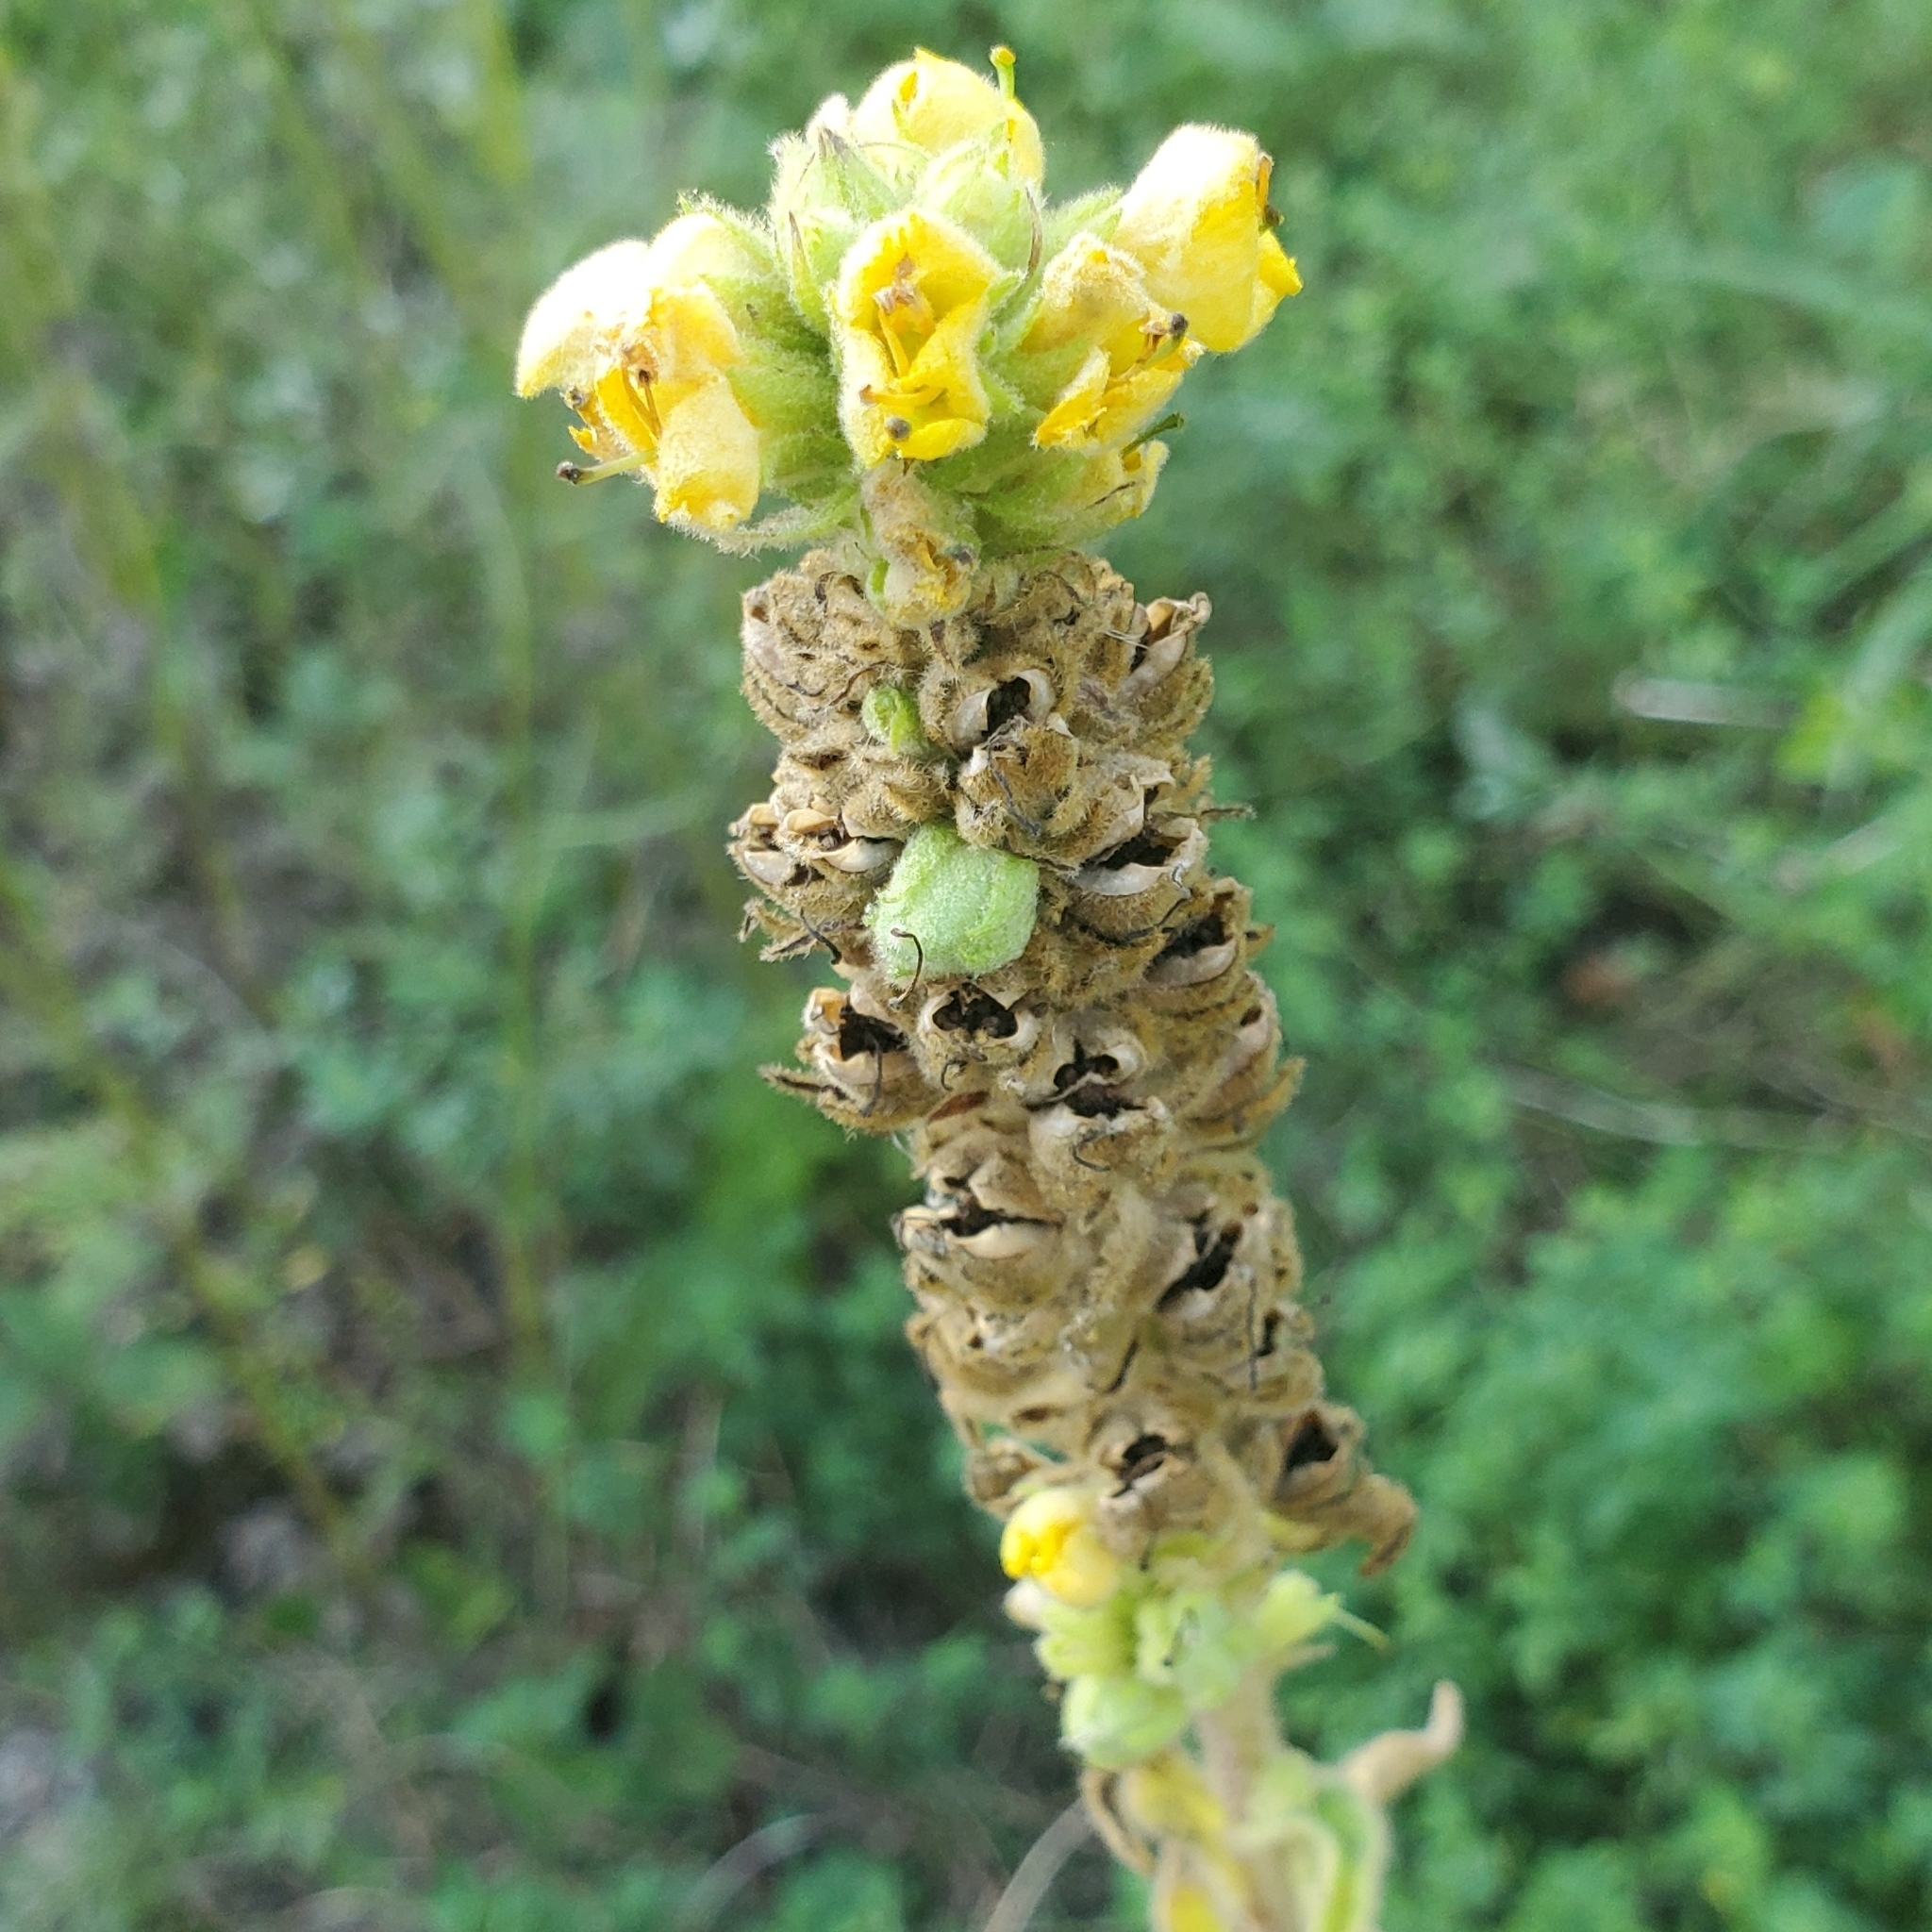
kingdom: Plantae
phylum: Tracheophyta
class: Magnoliopsida
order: Lamiales
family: Scrophulariaceae
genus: Verbascum
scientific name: Verbascum thapsus
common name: Common mullein
